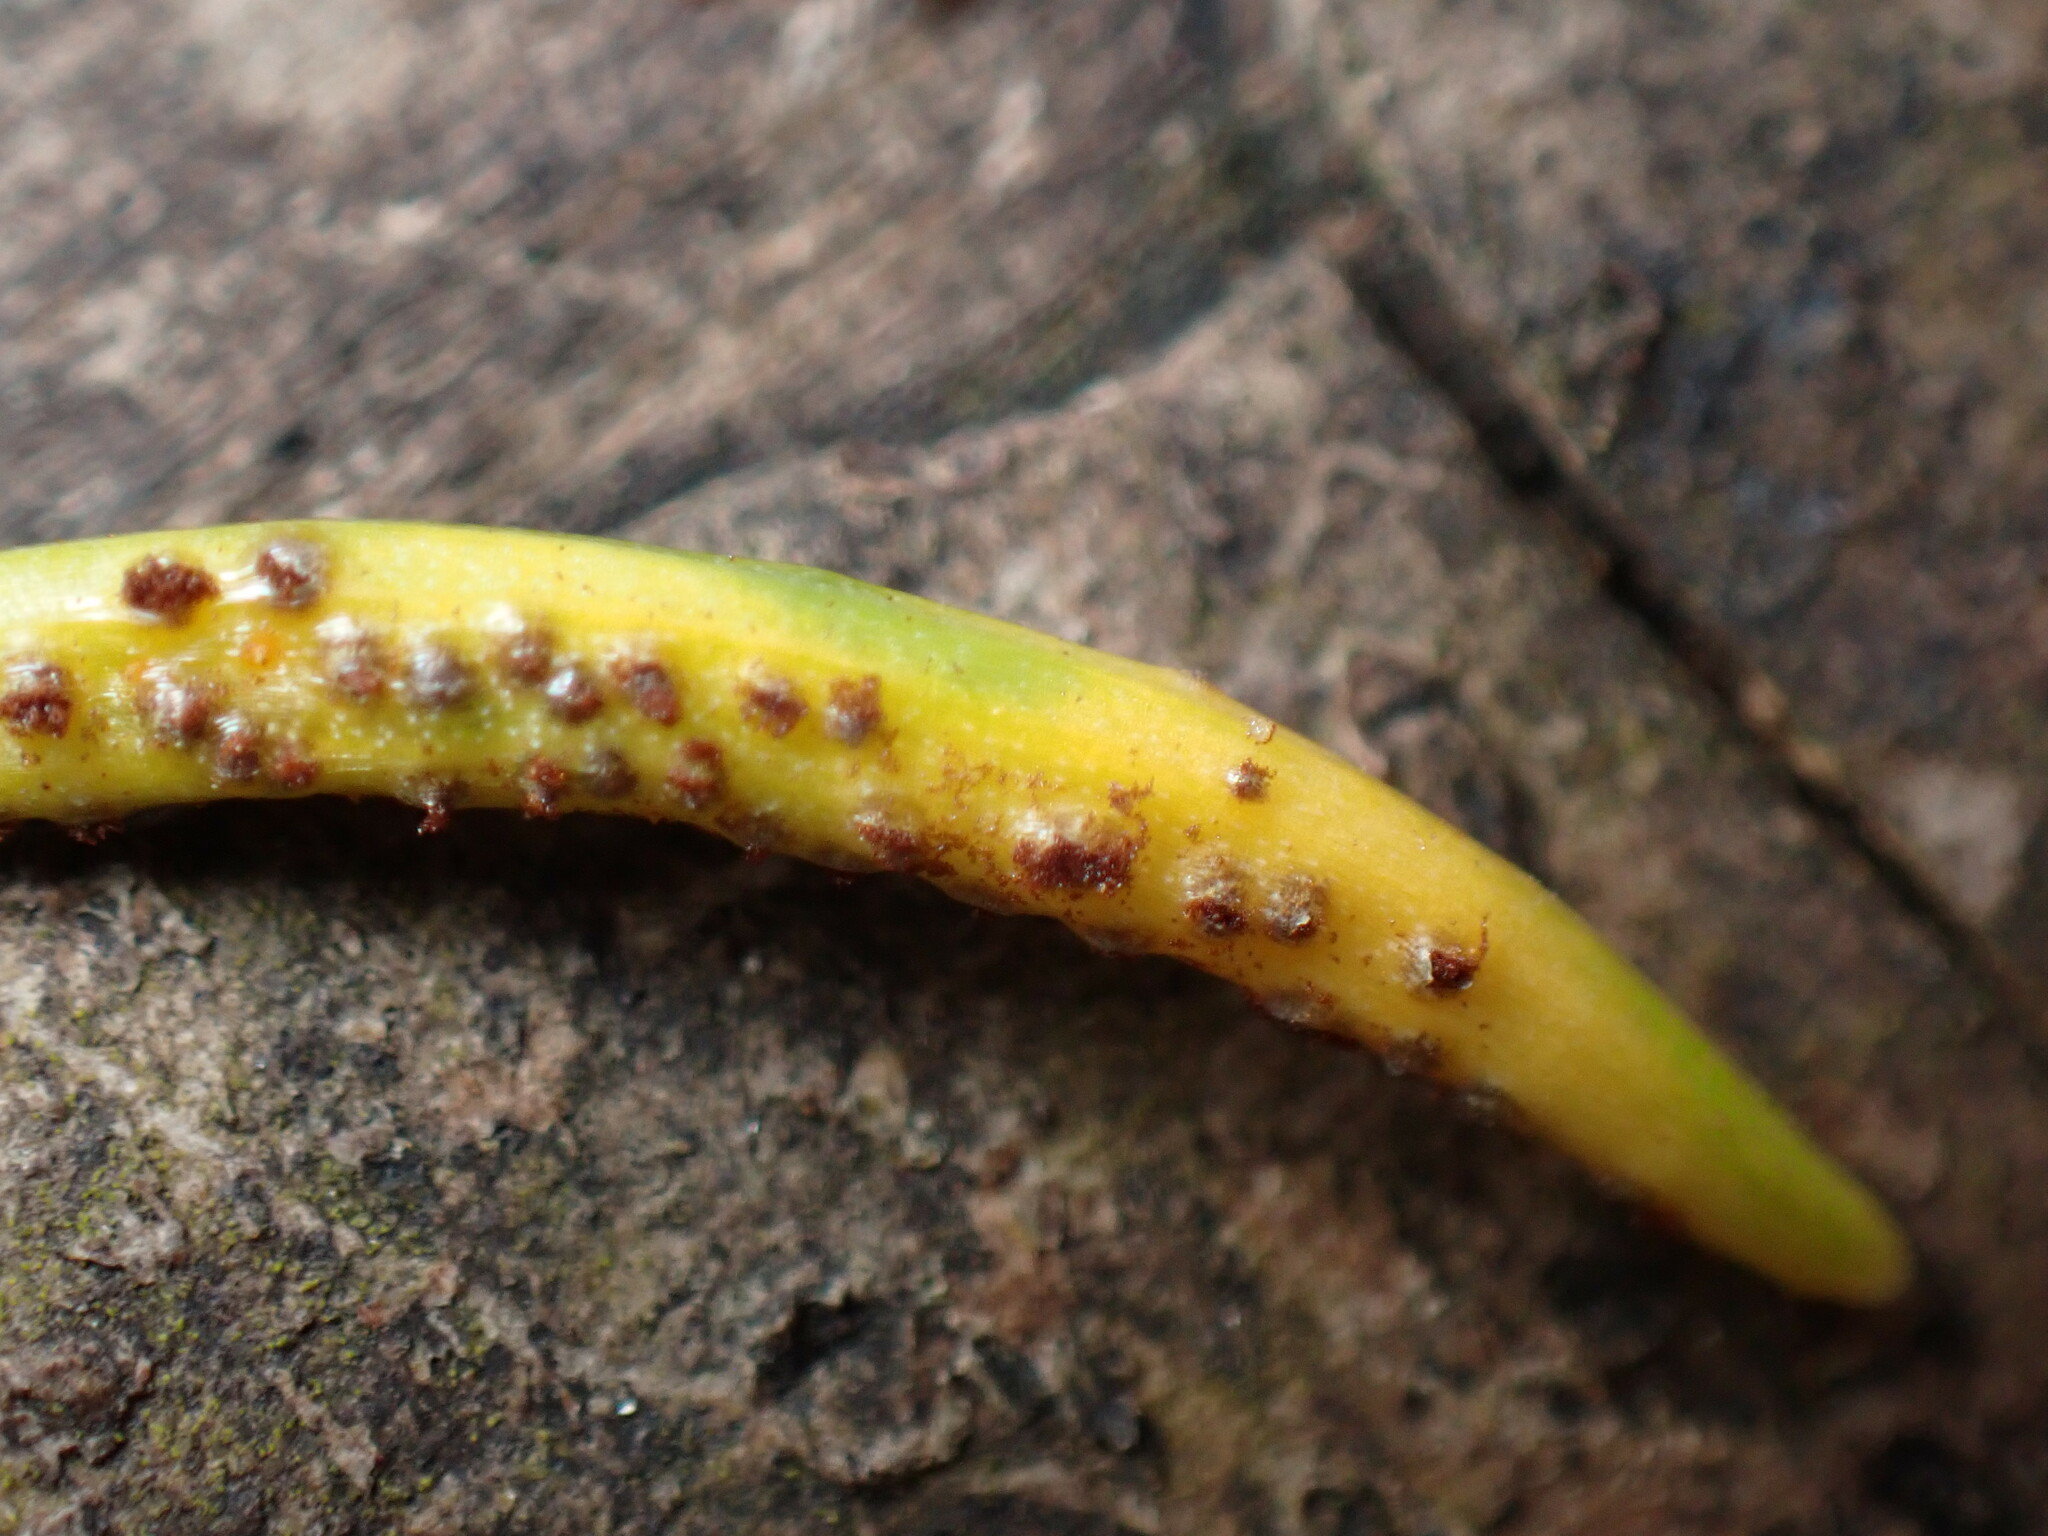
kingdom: Fungi
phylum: Basidiomycota
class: Pucciniomycetes
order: Pucciniales
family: Pucciniaceae
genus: Puccinia
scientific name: Puccinia liliacearum
